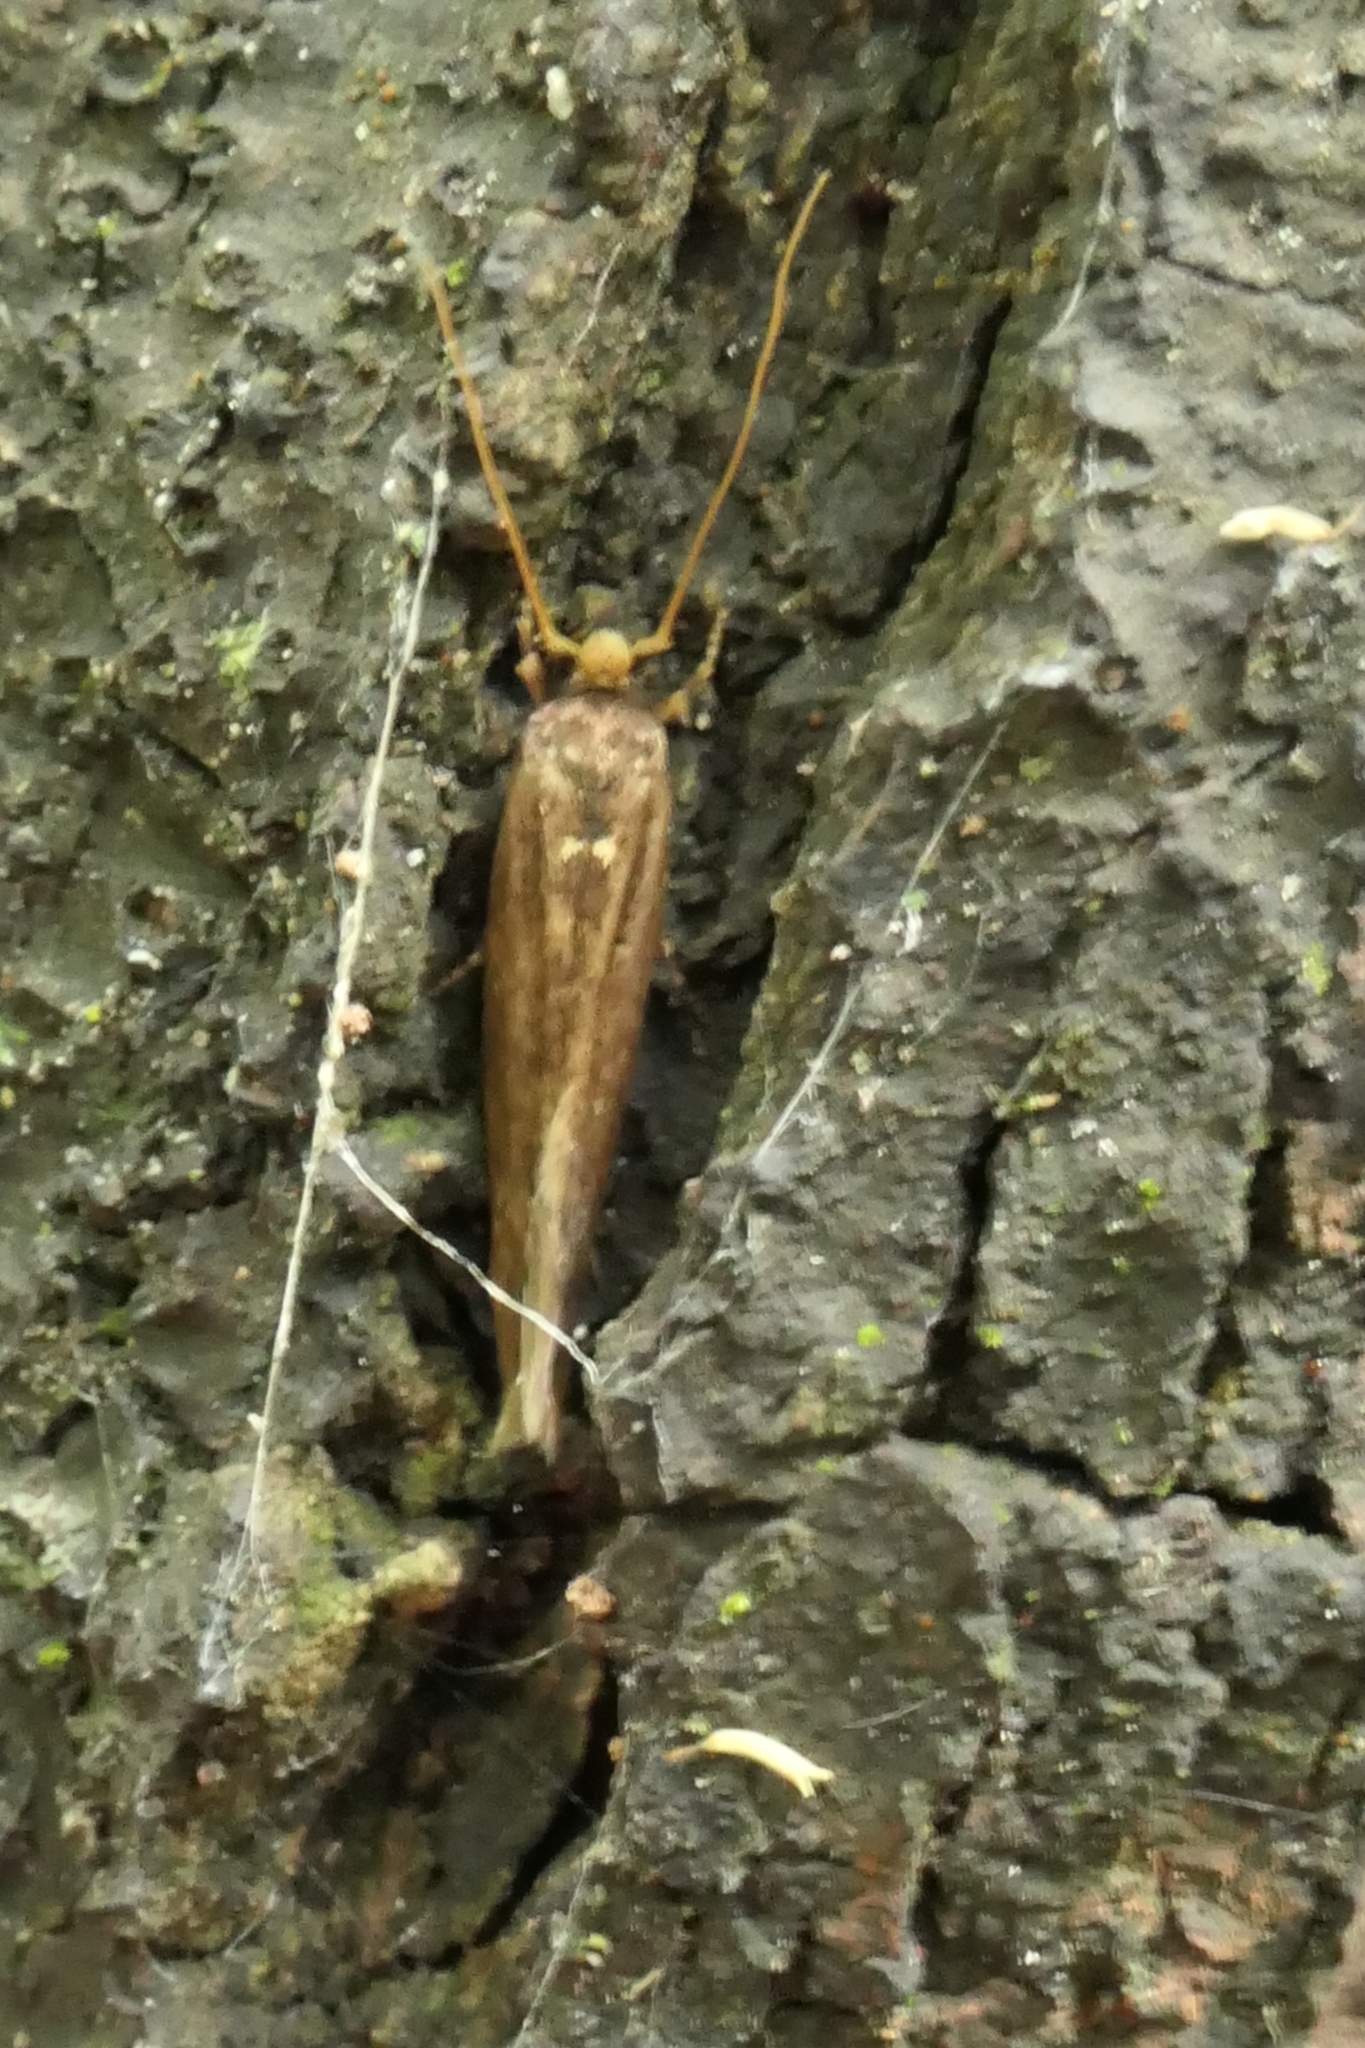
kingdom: Animalia
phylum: Arthropoda
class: Insecta
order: Lepidoptera
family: Tineidae
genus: Opogona
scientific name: Opogona omoscopa
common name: Moth
